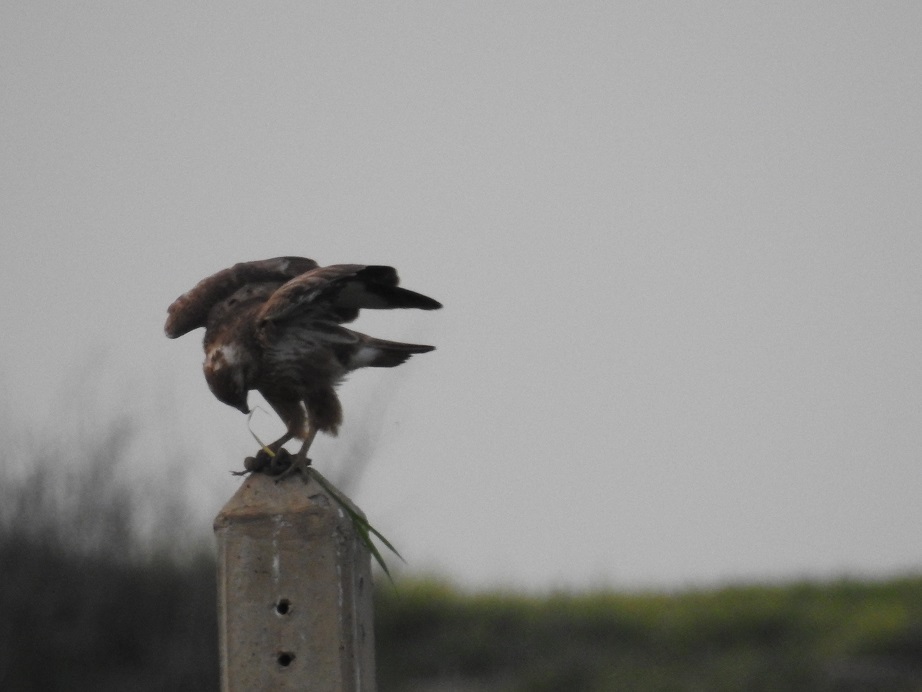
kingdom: Animalia
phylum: Chordata
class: Aves
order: Accipitriformes
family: Accipitridae
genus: Buteo
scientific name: Buteo rufinus
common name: Long-legged buzzard
